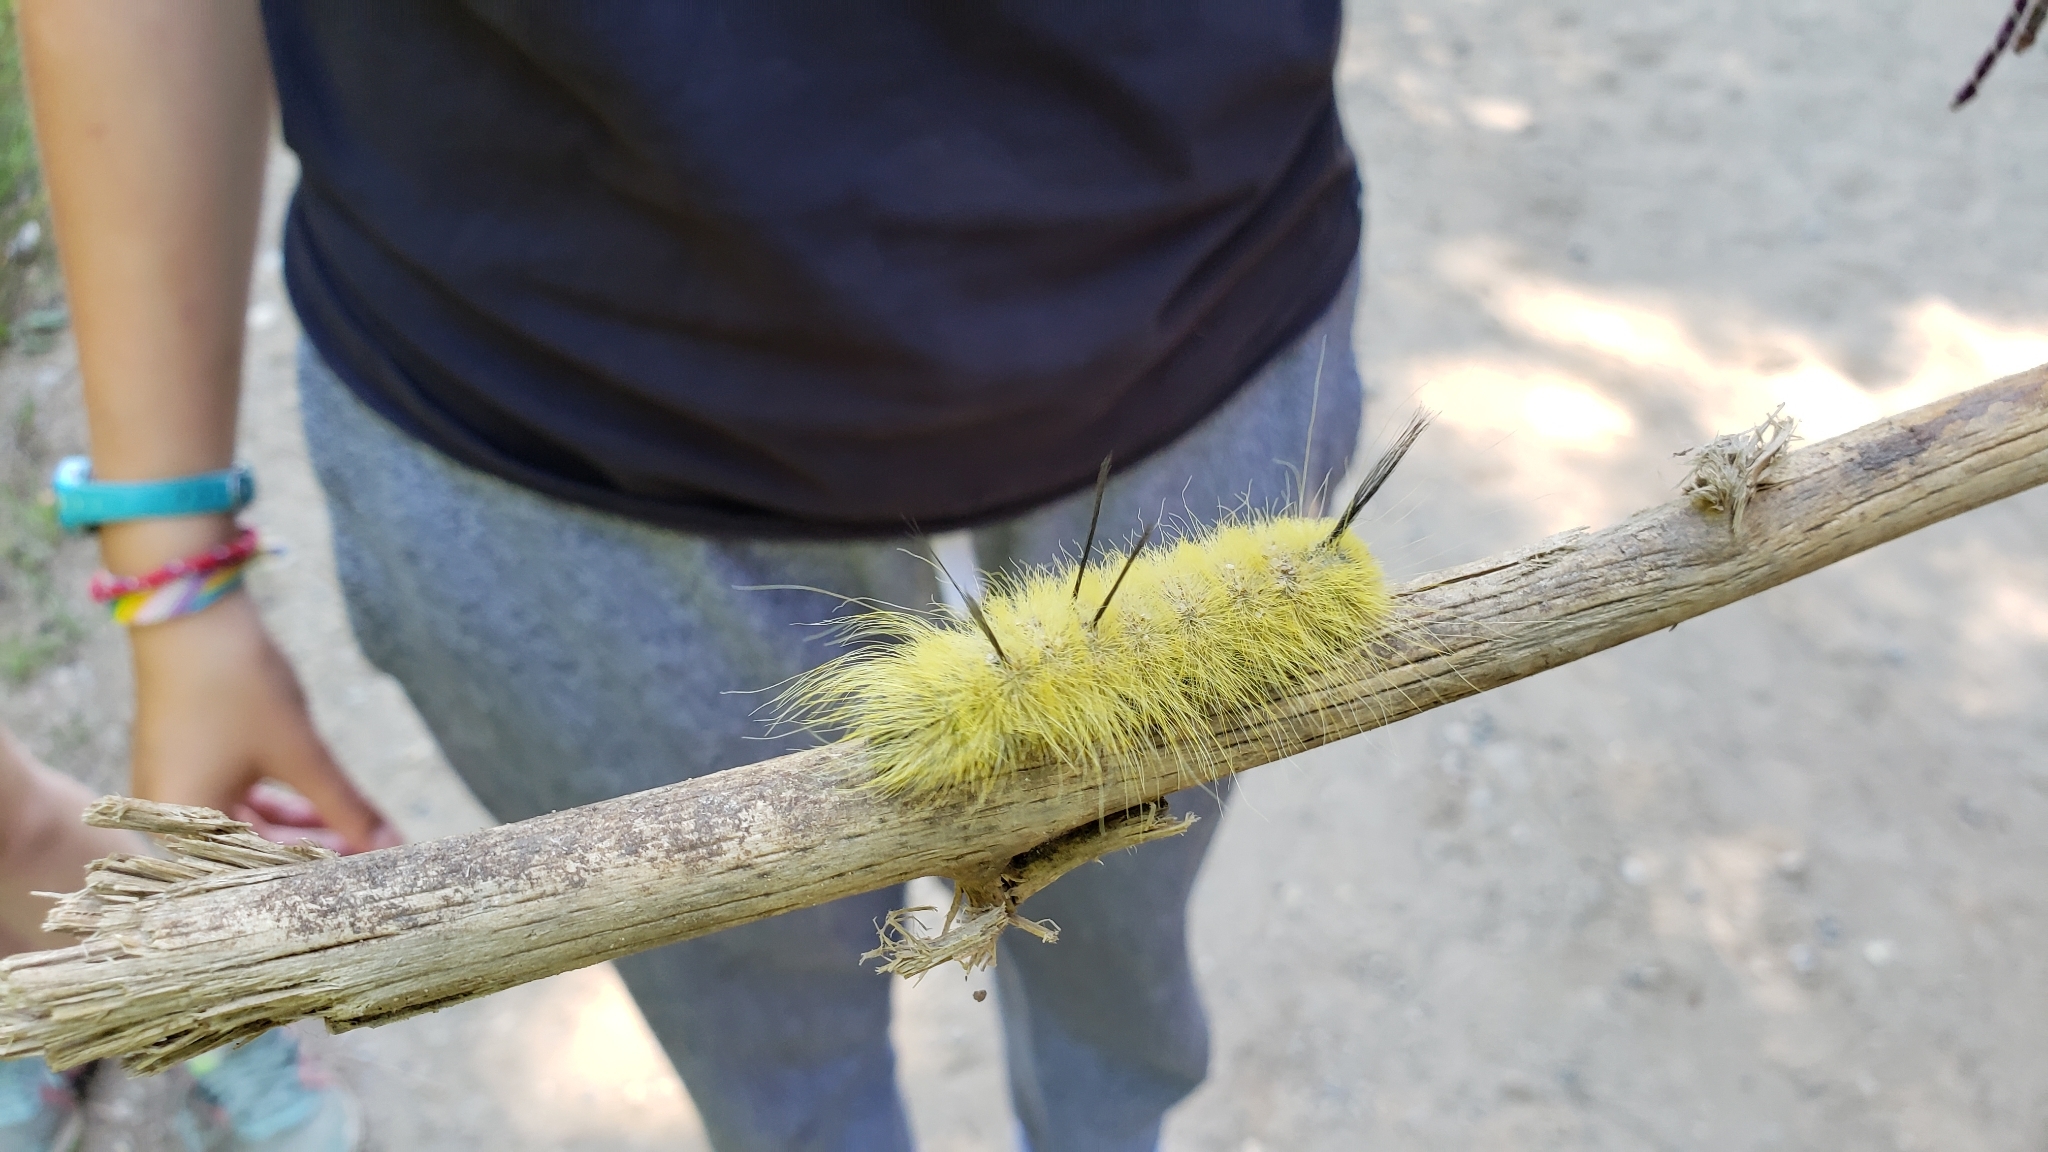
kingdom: Animalia
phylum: Arthropoda
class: Insecta
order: Lepidoptera
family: Noctuidae
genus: Acronicta
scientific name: Acronicta americana
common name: American dagger
